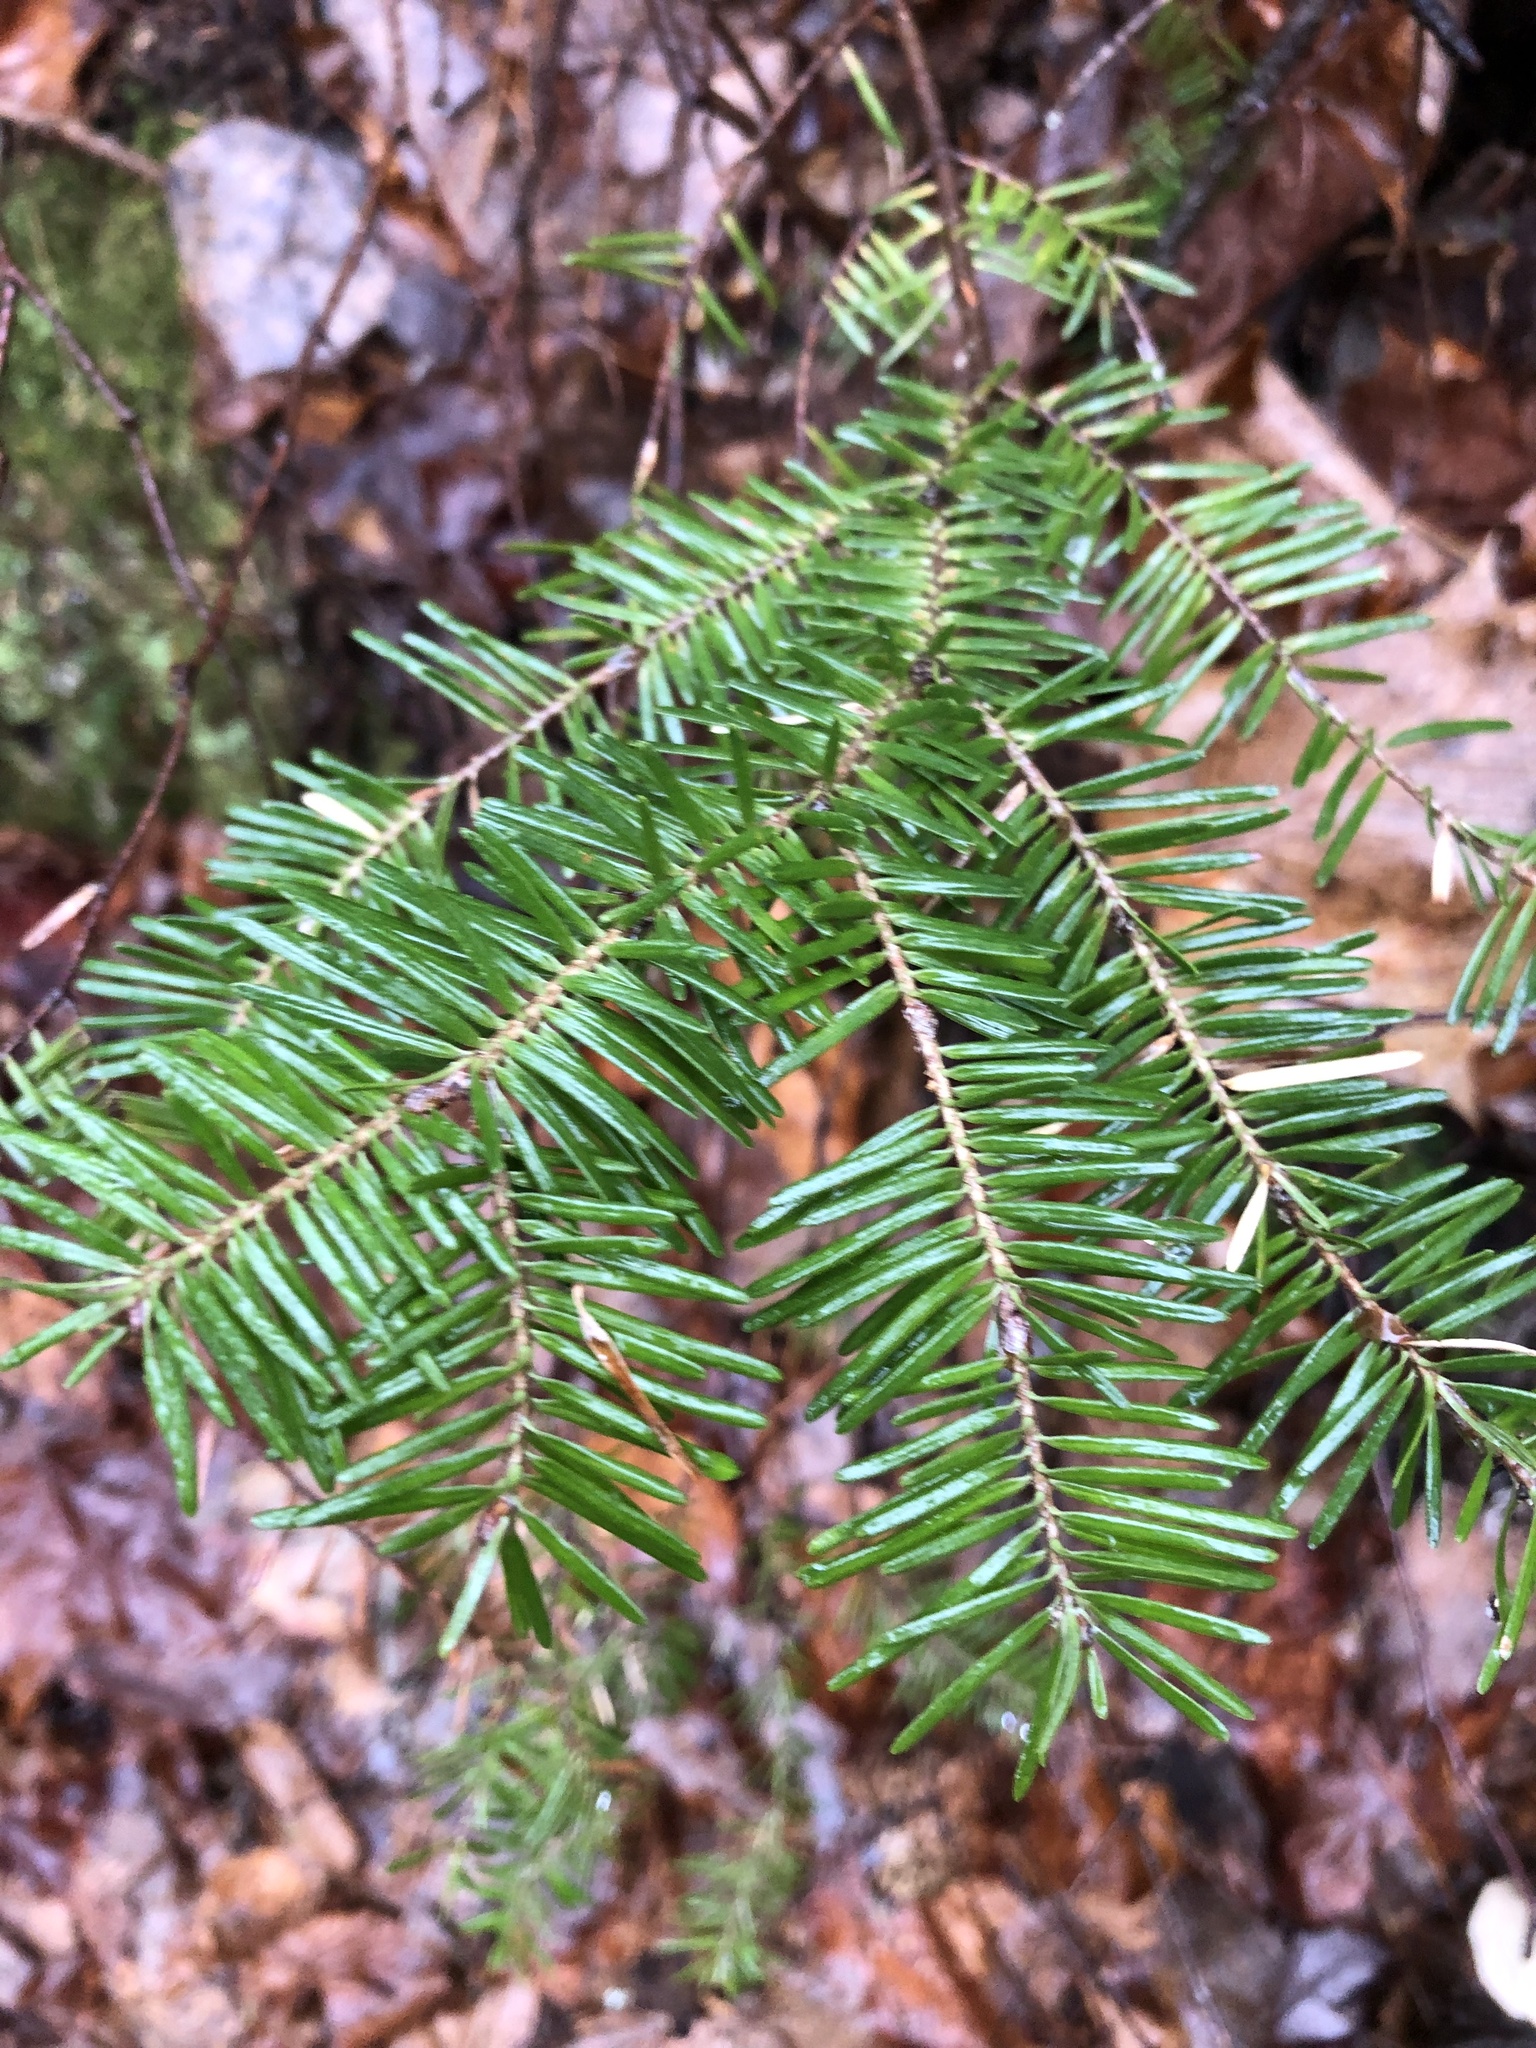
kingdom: Plantae
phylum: Tracheophyta
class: Pinopsida
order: Pinales
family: Pinaceae
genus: Abies
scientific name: Abies balsamea
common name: Balsam fir
